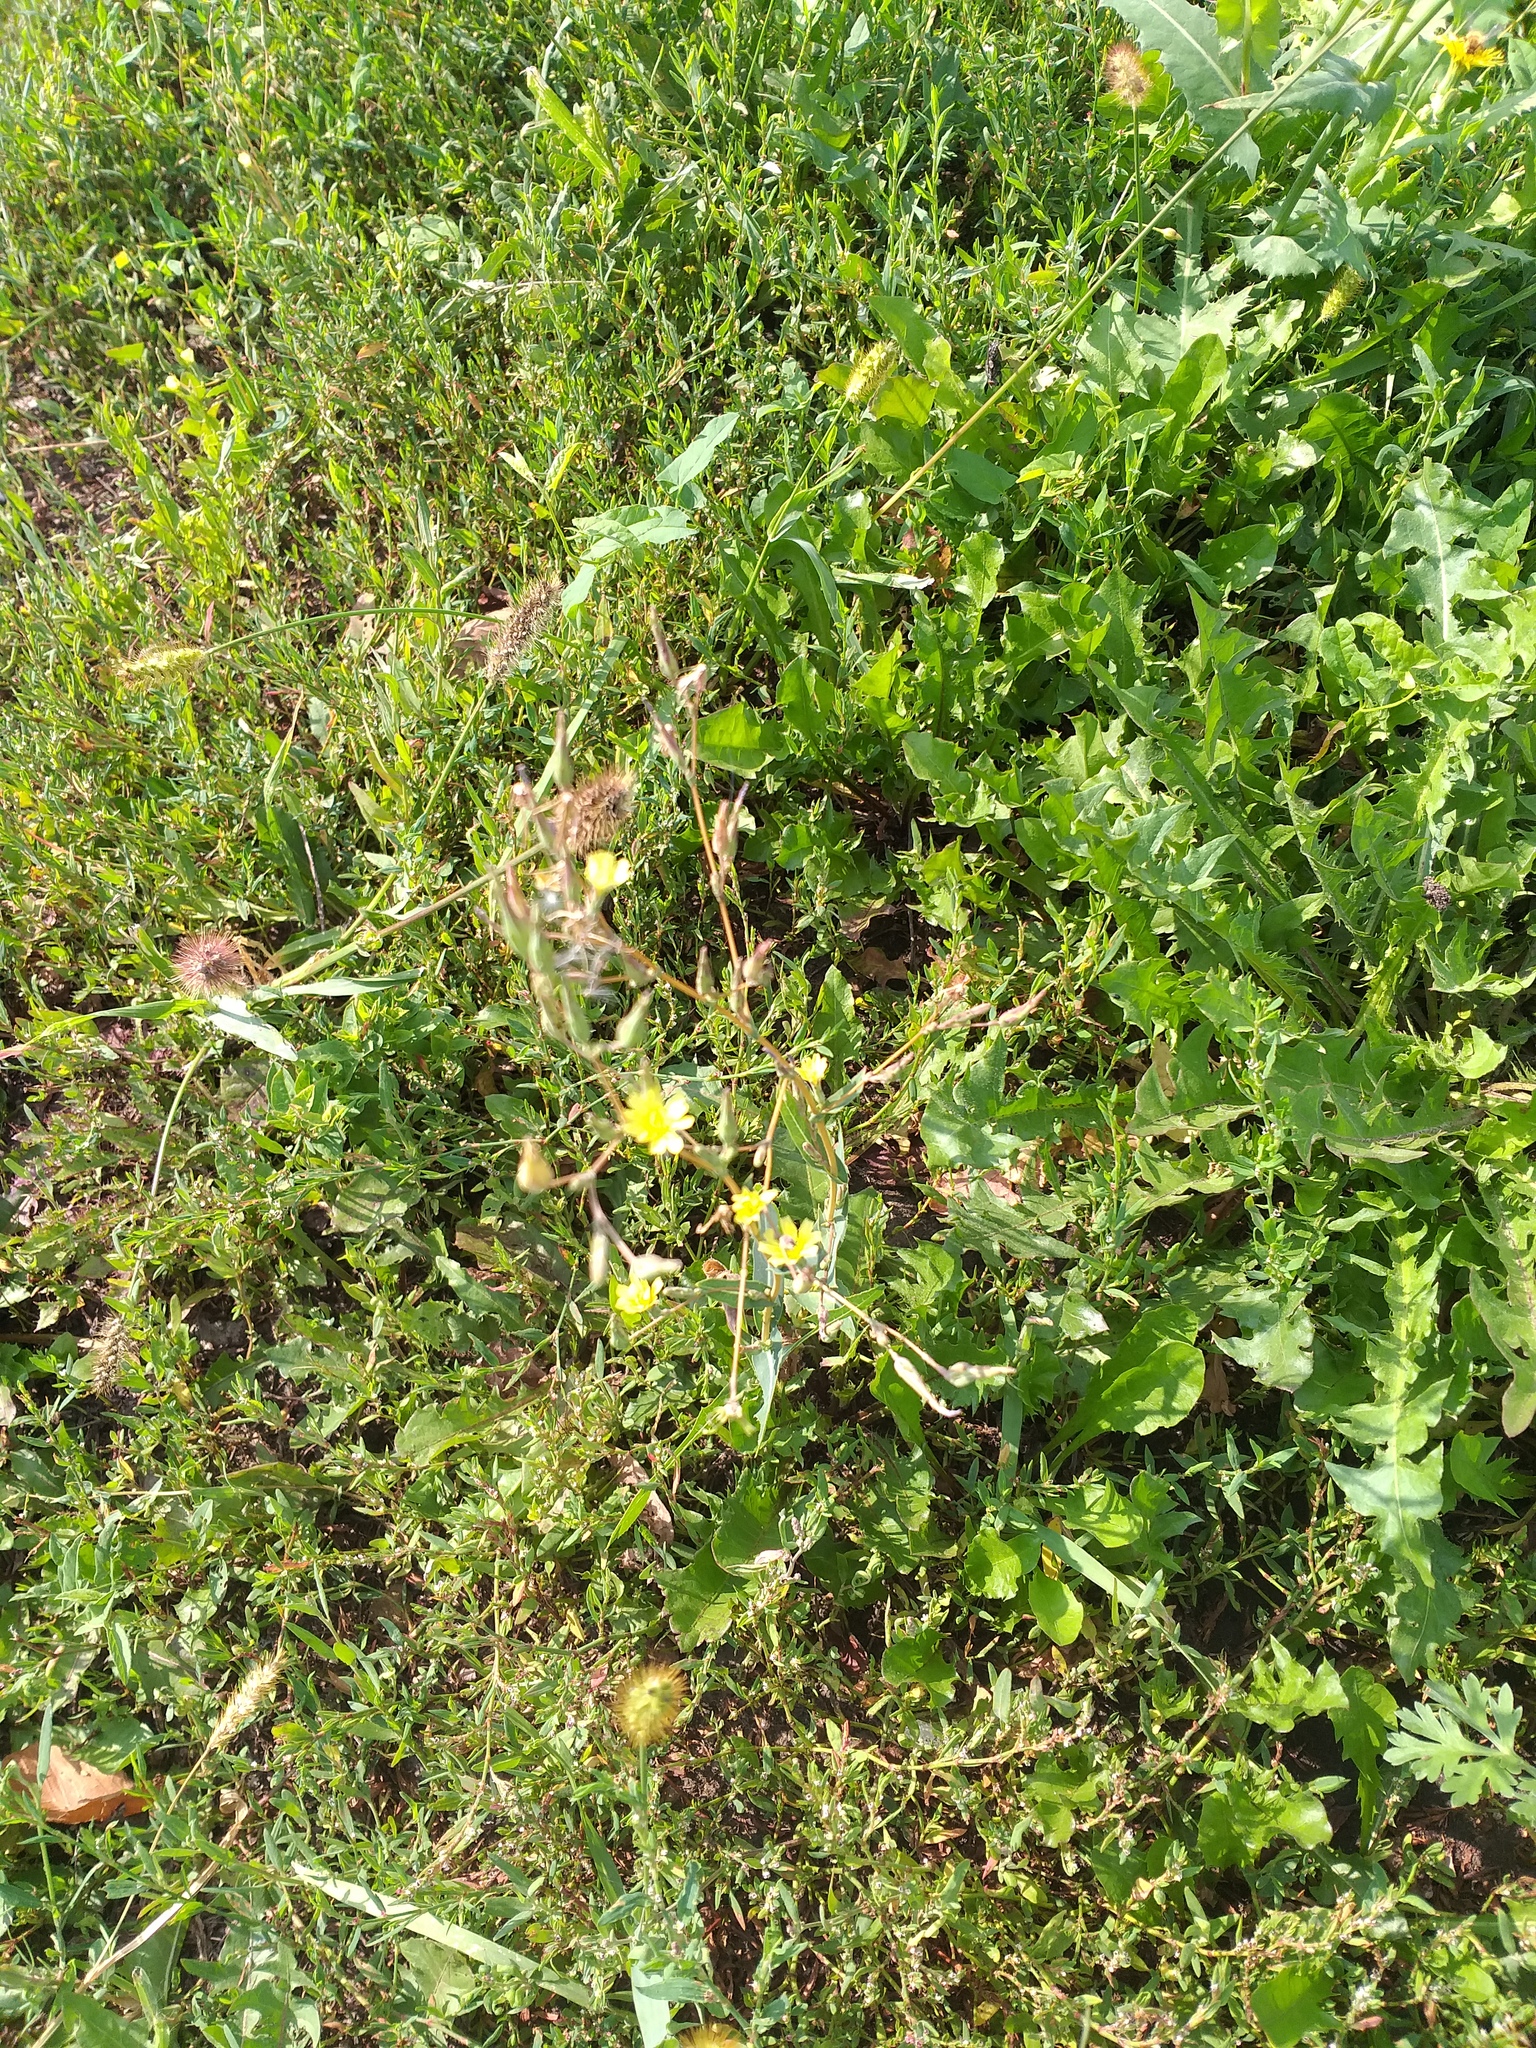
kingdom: Plantae
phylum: Tracheophyta
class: Magnoliopsida
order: Asterales
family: Asteraceae
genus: Lactuca
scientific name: Lactuca serriola
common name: Prickly lettuce
